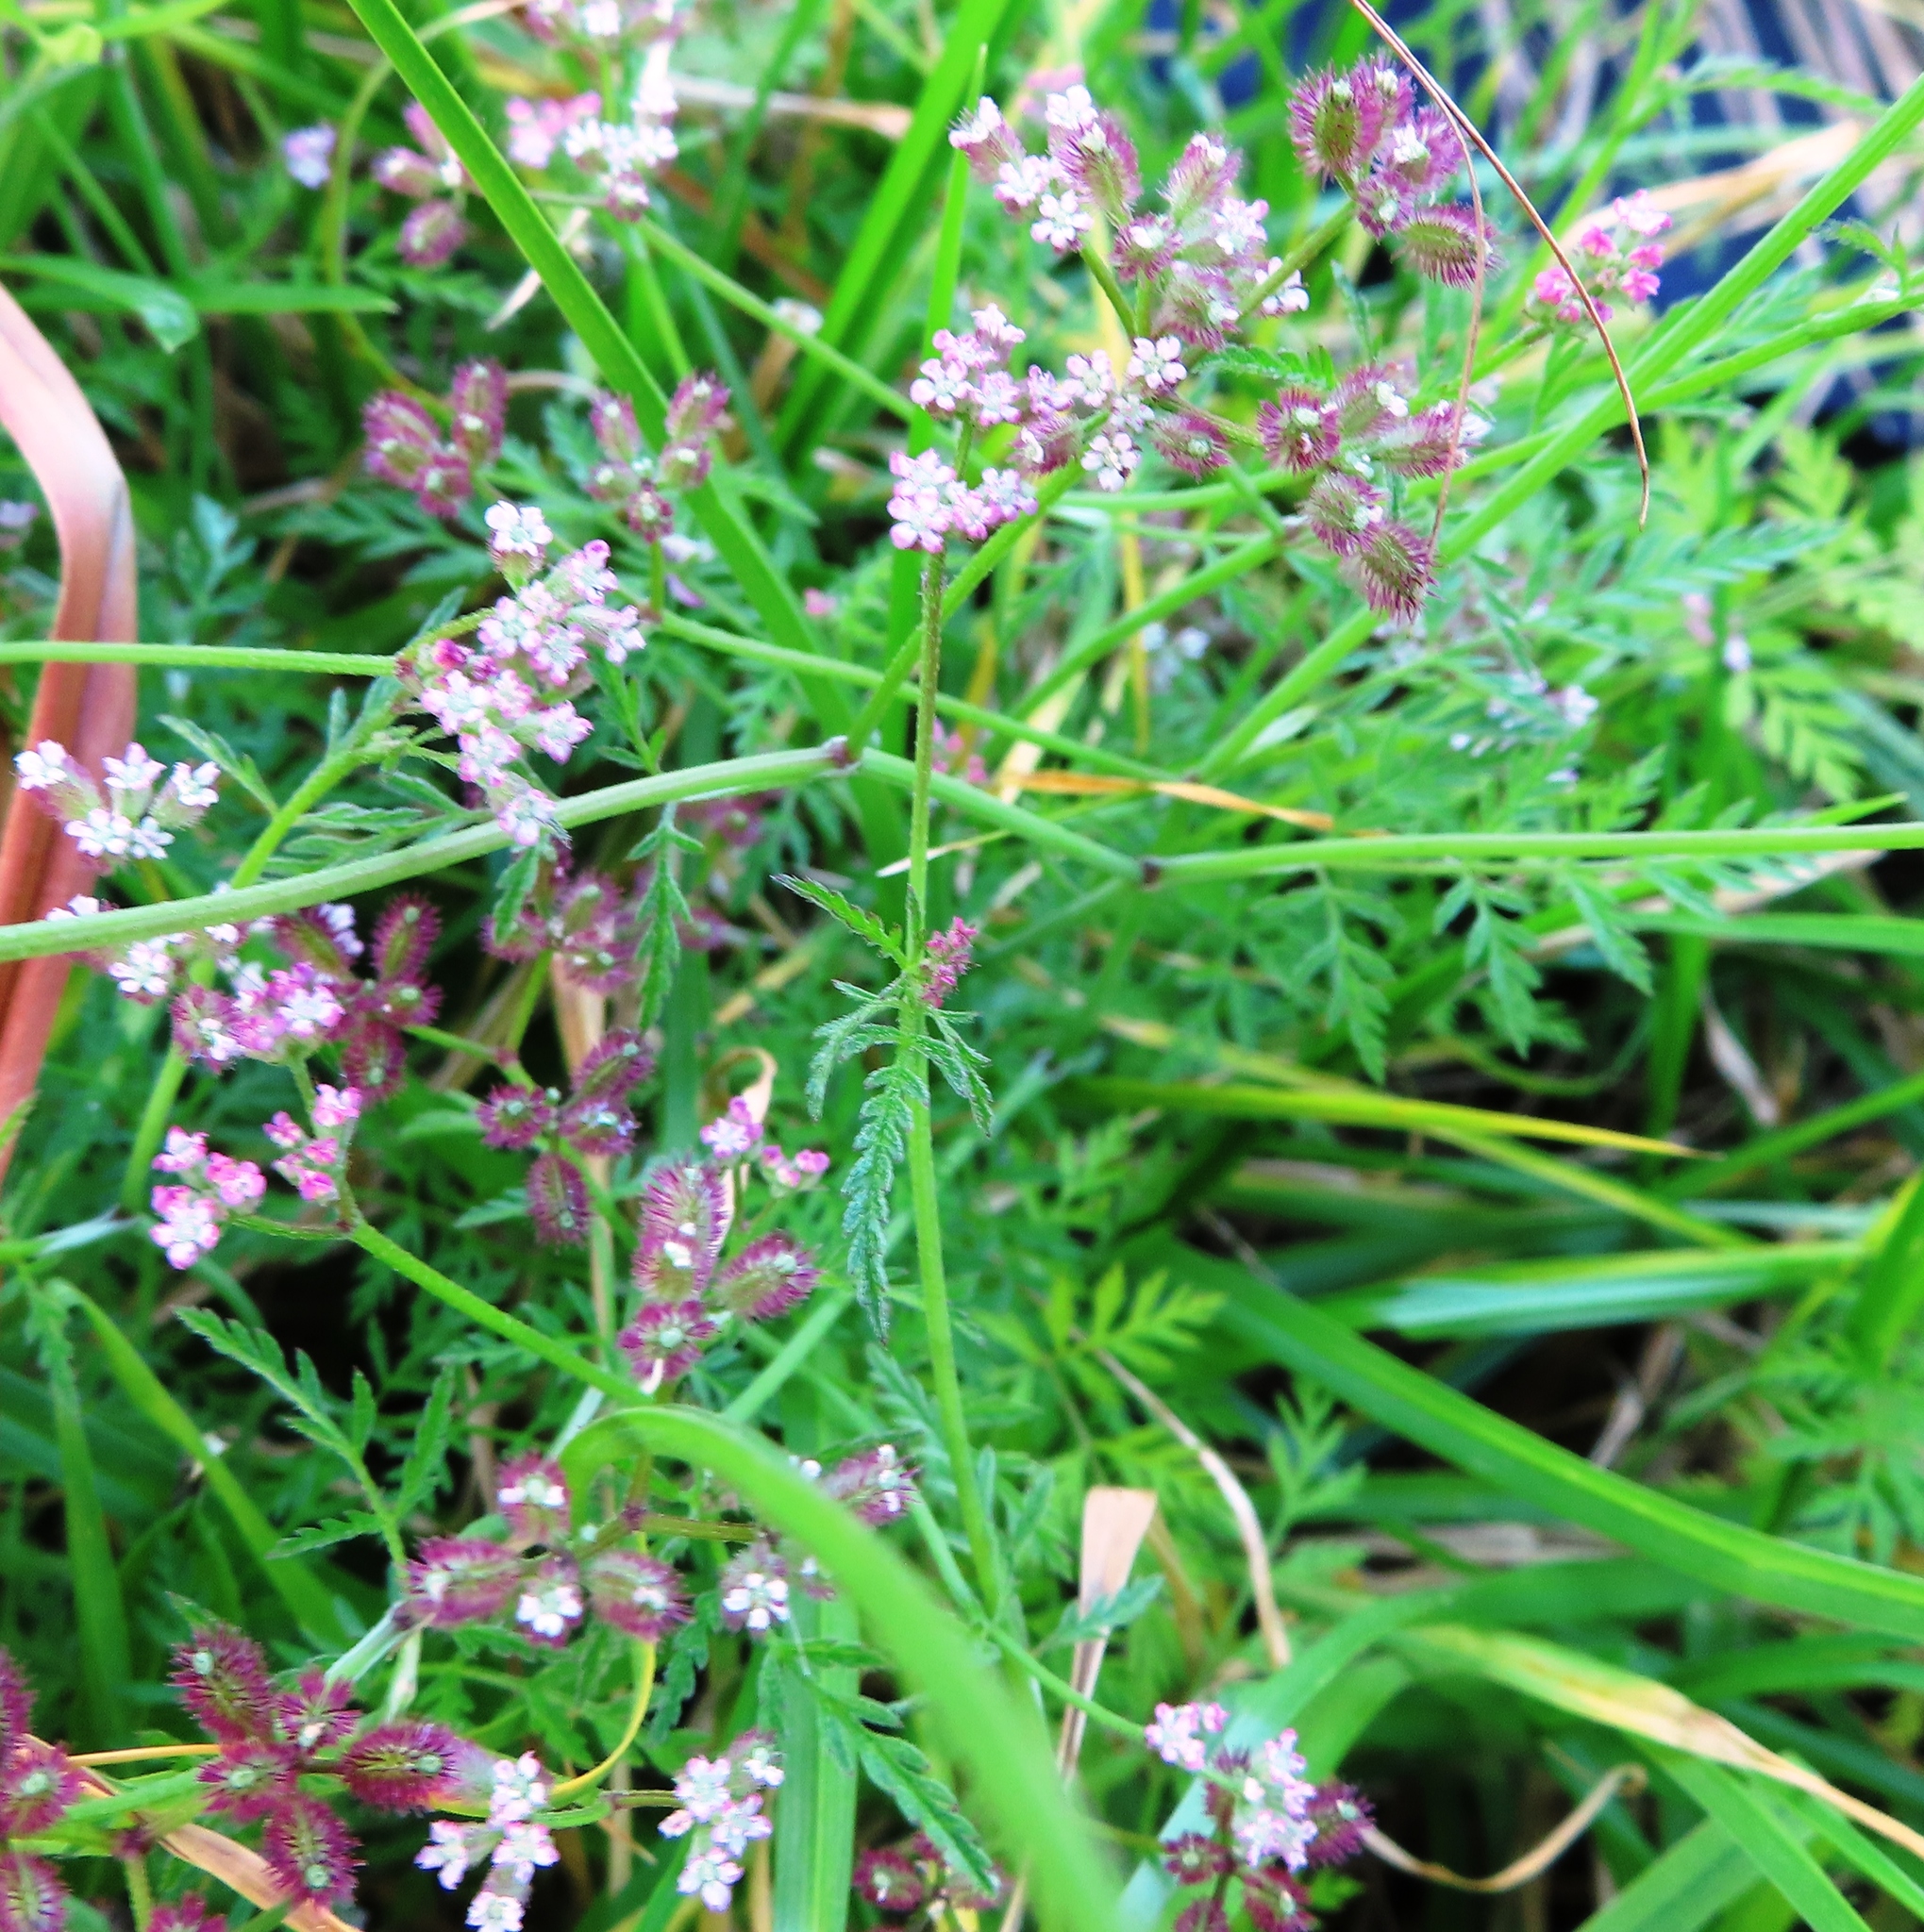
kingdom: Plantae
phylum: Tracheophyta
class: Magnoliopsida
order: Apiales
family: Apiaceae
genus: Torilis
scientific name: Torilis africana
